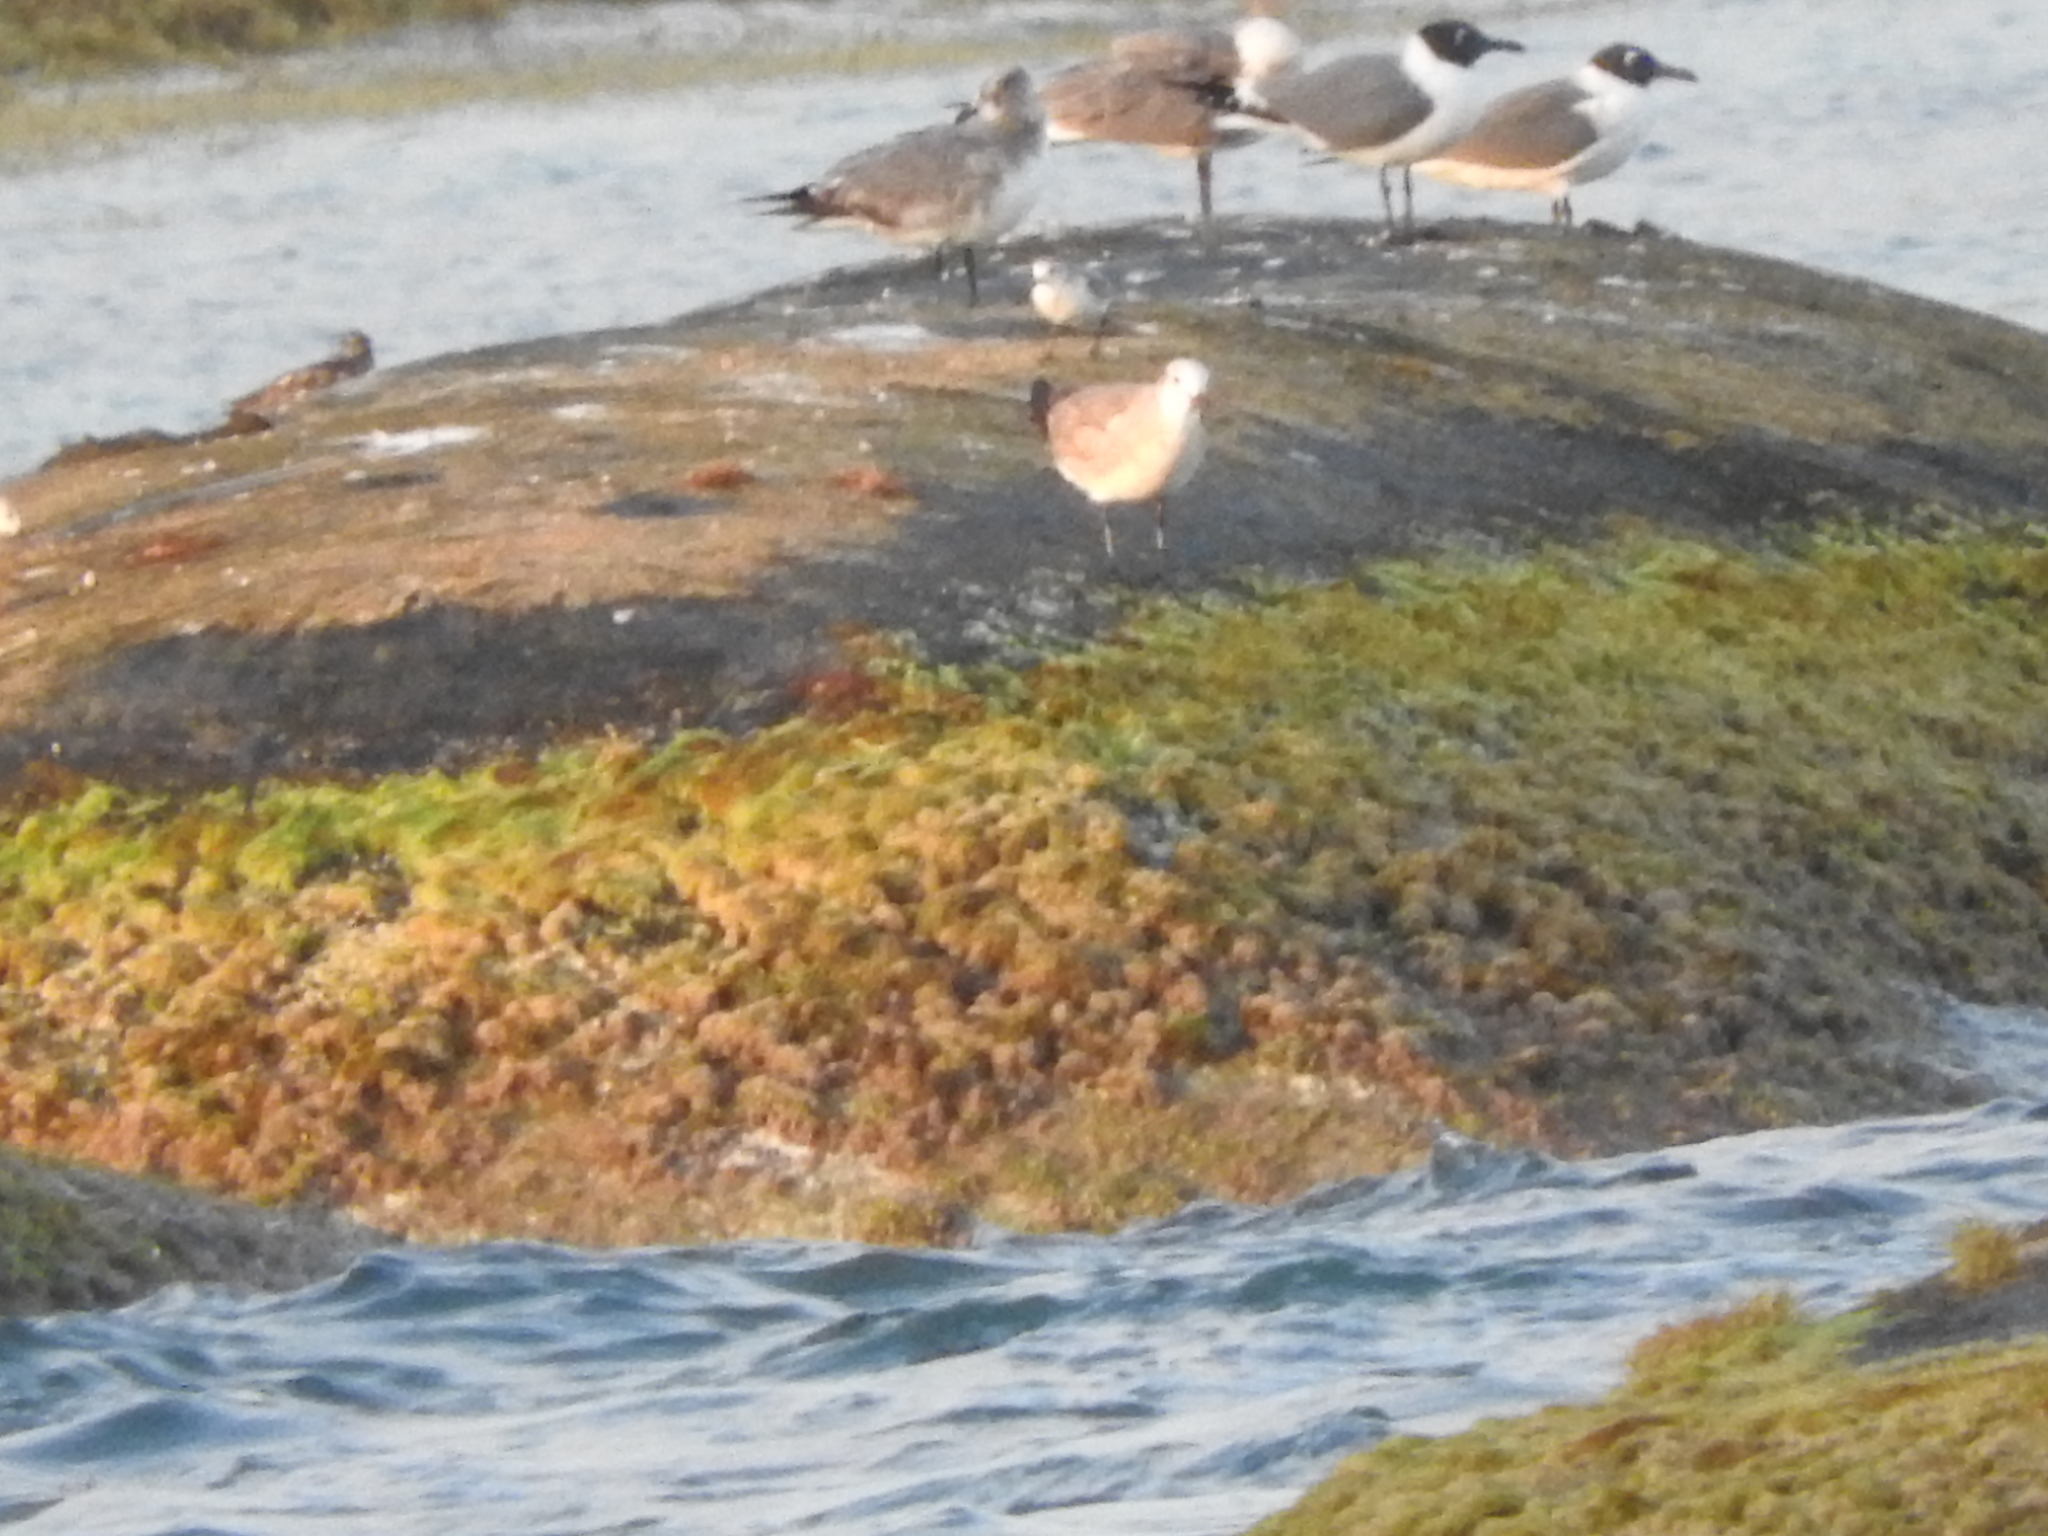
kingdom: Animalia
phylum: Chordata
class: Aves
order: Charadriiformes
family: Laridae
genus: Leucophaeus
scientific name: Leucophaeus atricilla
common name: Laughing gull
